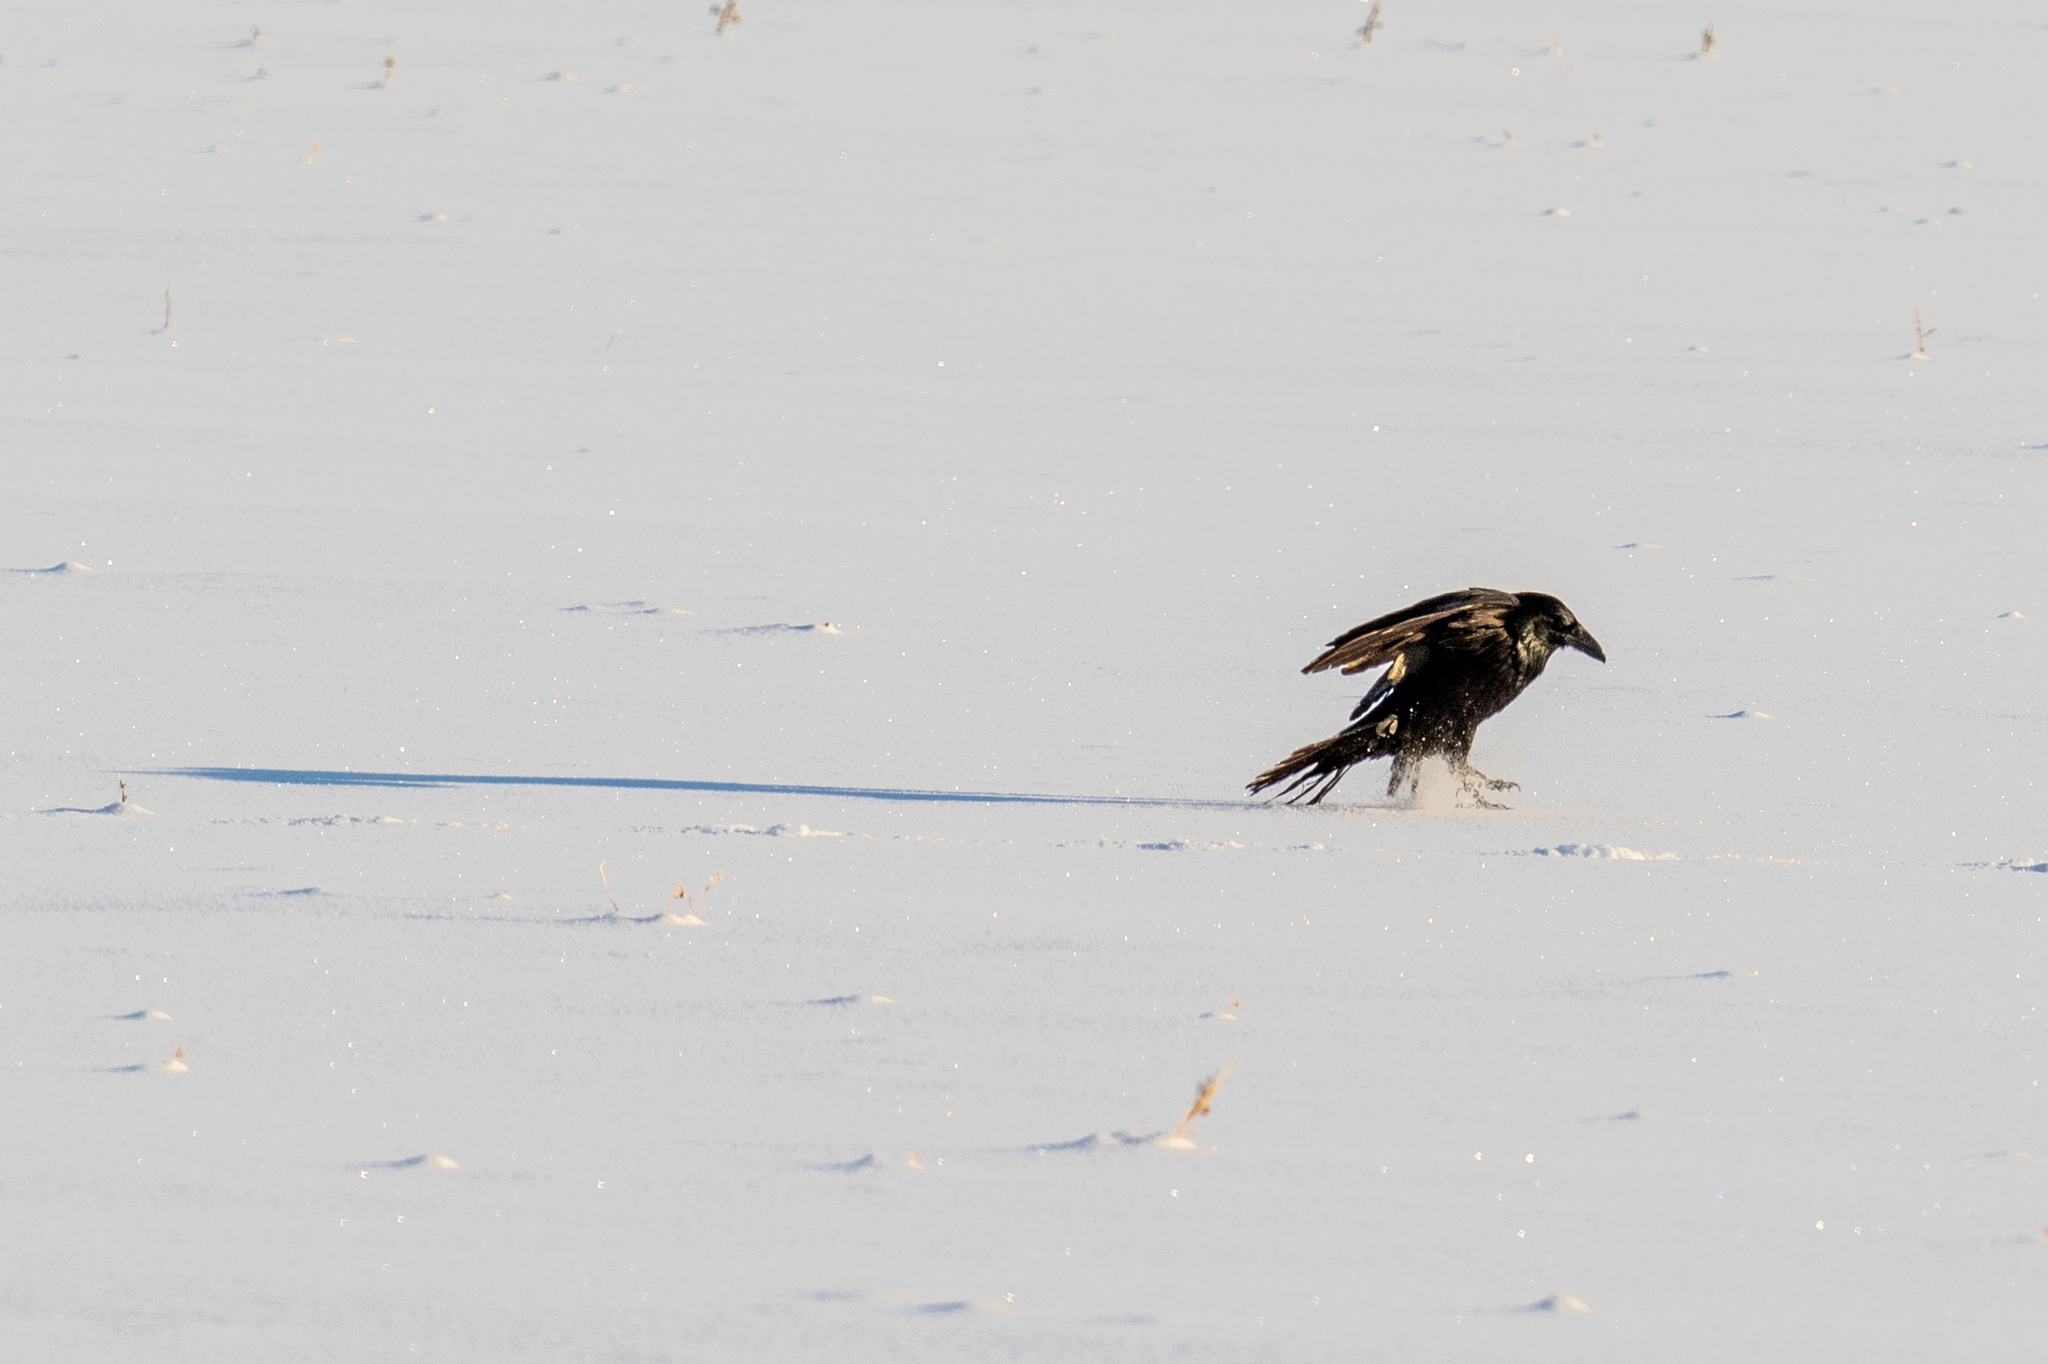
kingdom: Animalia
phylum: Chordata
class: Aves
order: Passeriformes
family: Corvidae
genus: Corvus
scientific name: Corvus corax
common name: Common raven
